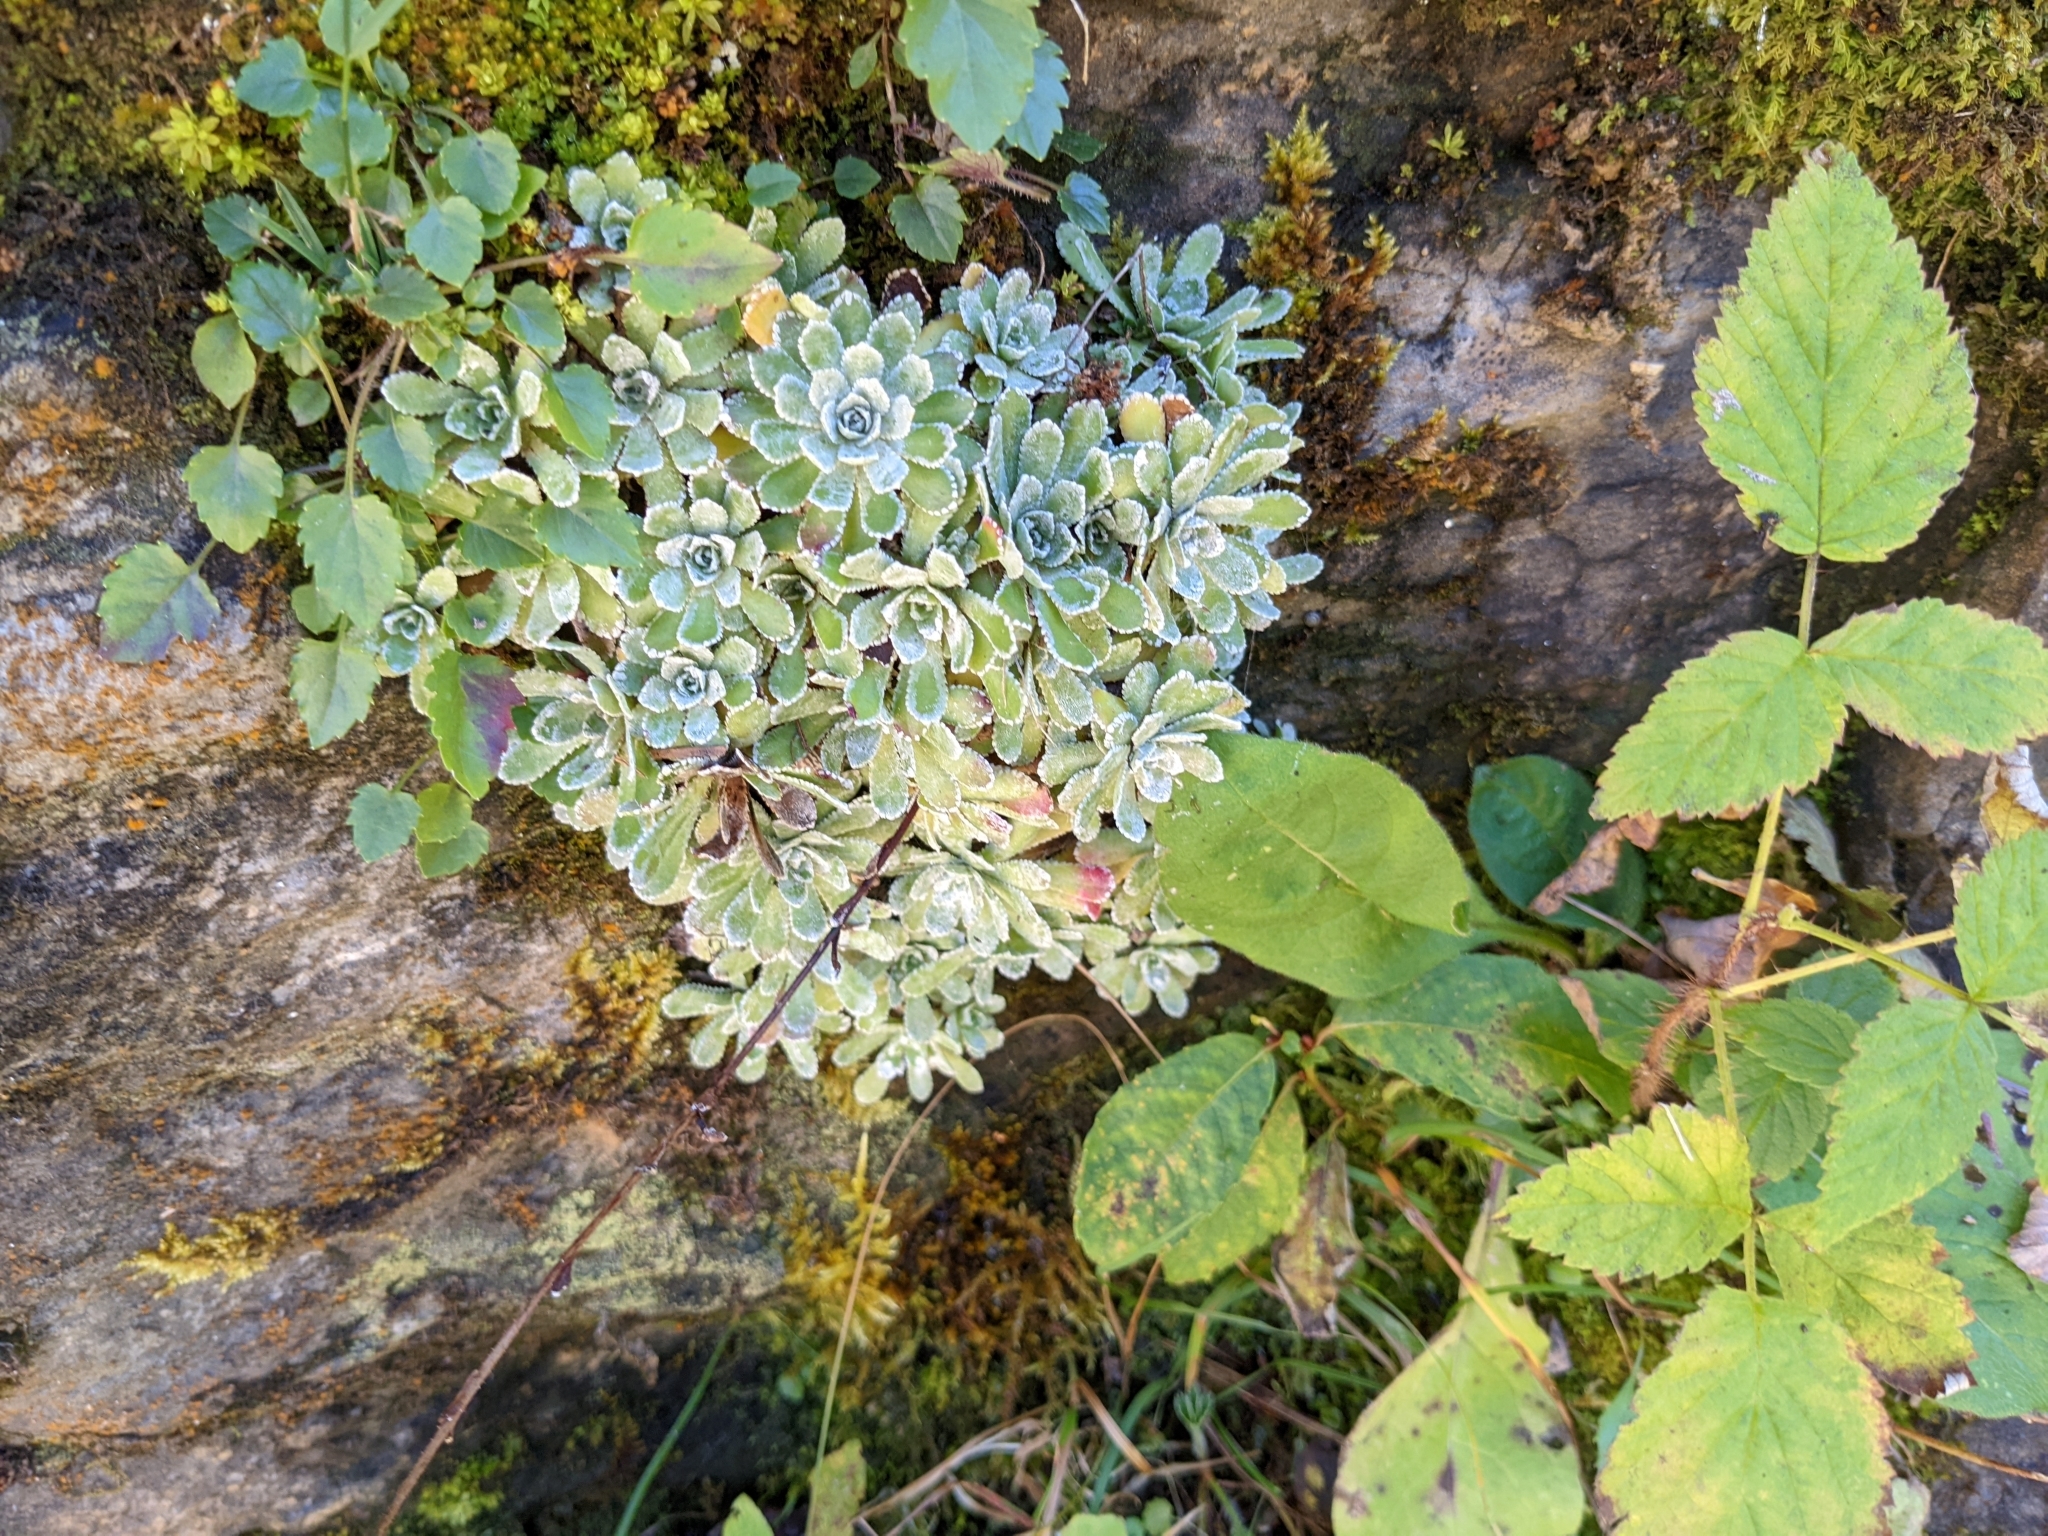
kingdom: Plantae
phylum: Tracheophyta
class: Magnoliopsida
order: Saxifragales
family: Saxifragaceae
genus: Saxifraga
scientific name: Saxifraga paniculata
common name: Livelong saxifrage
